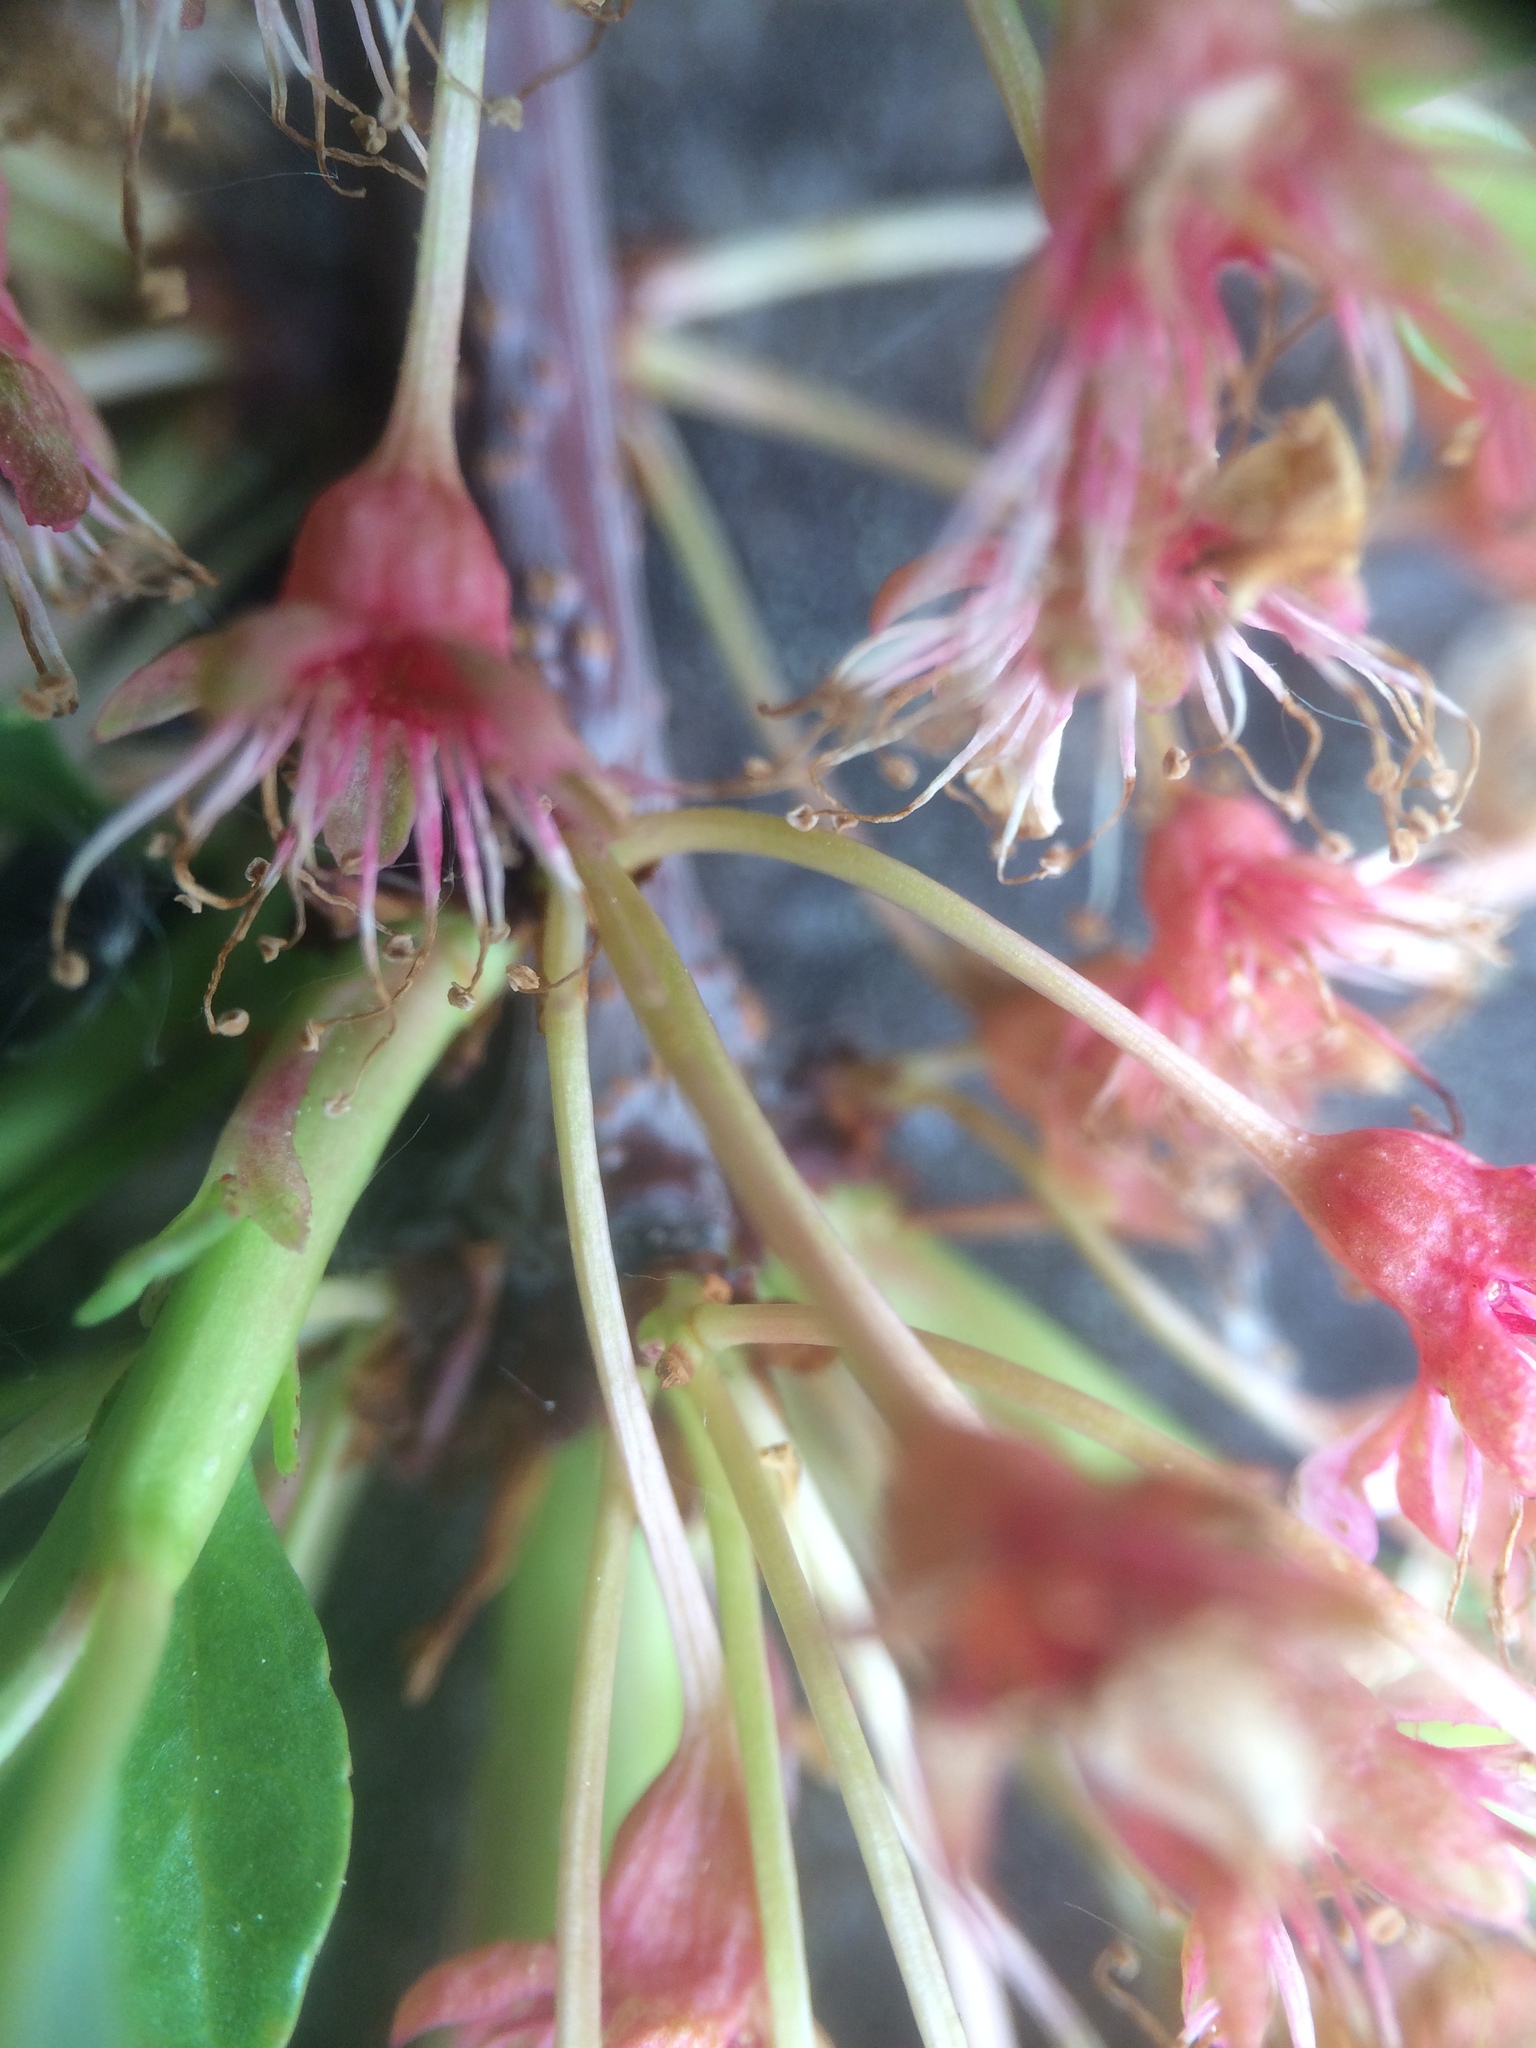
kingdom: Plantae
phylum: Tracheophyta
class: Magnoliopsida
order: Rosales
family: Rosaceae
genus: Prunus
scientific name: Prunus pumila
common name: Dwarf cherry
